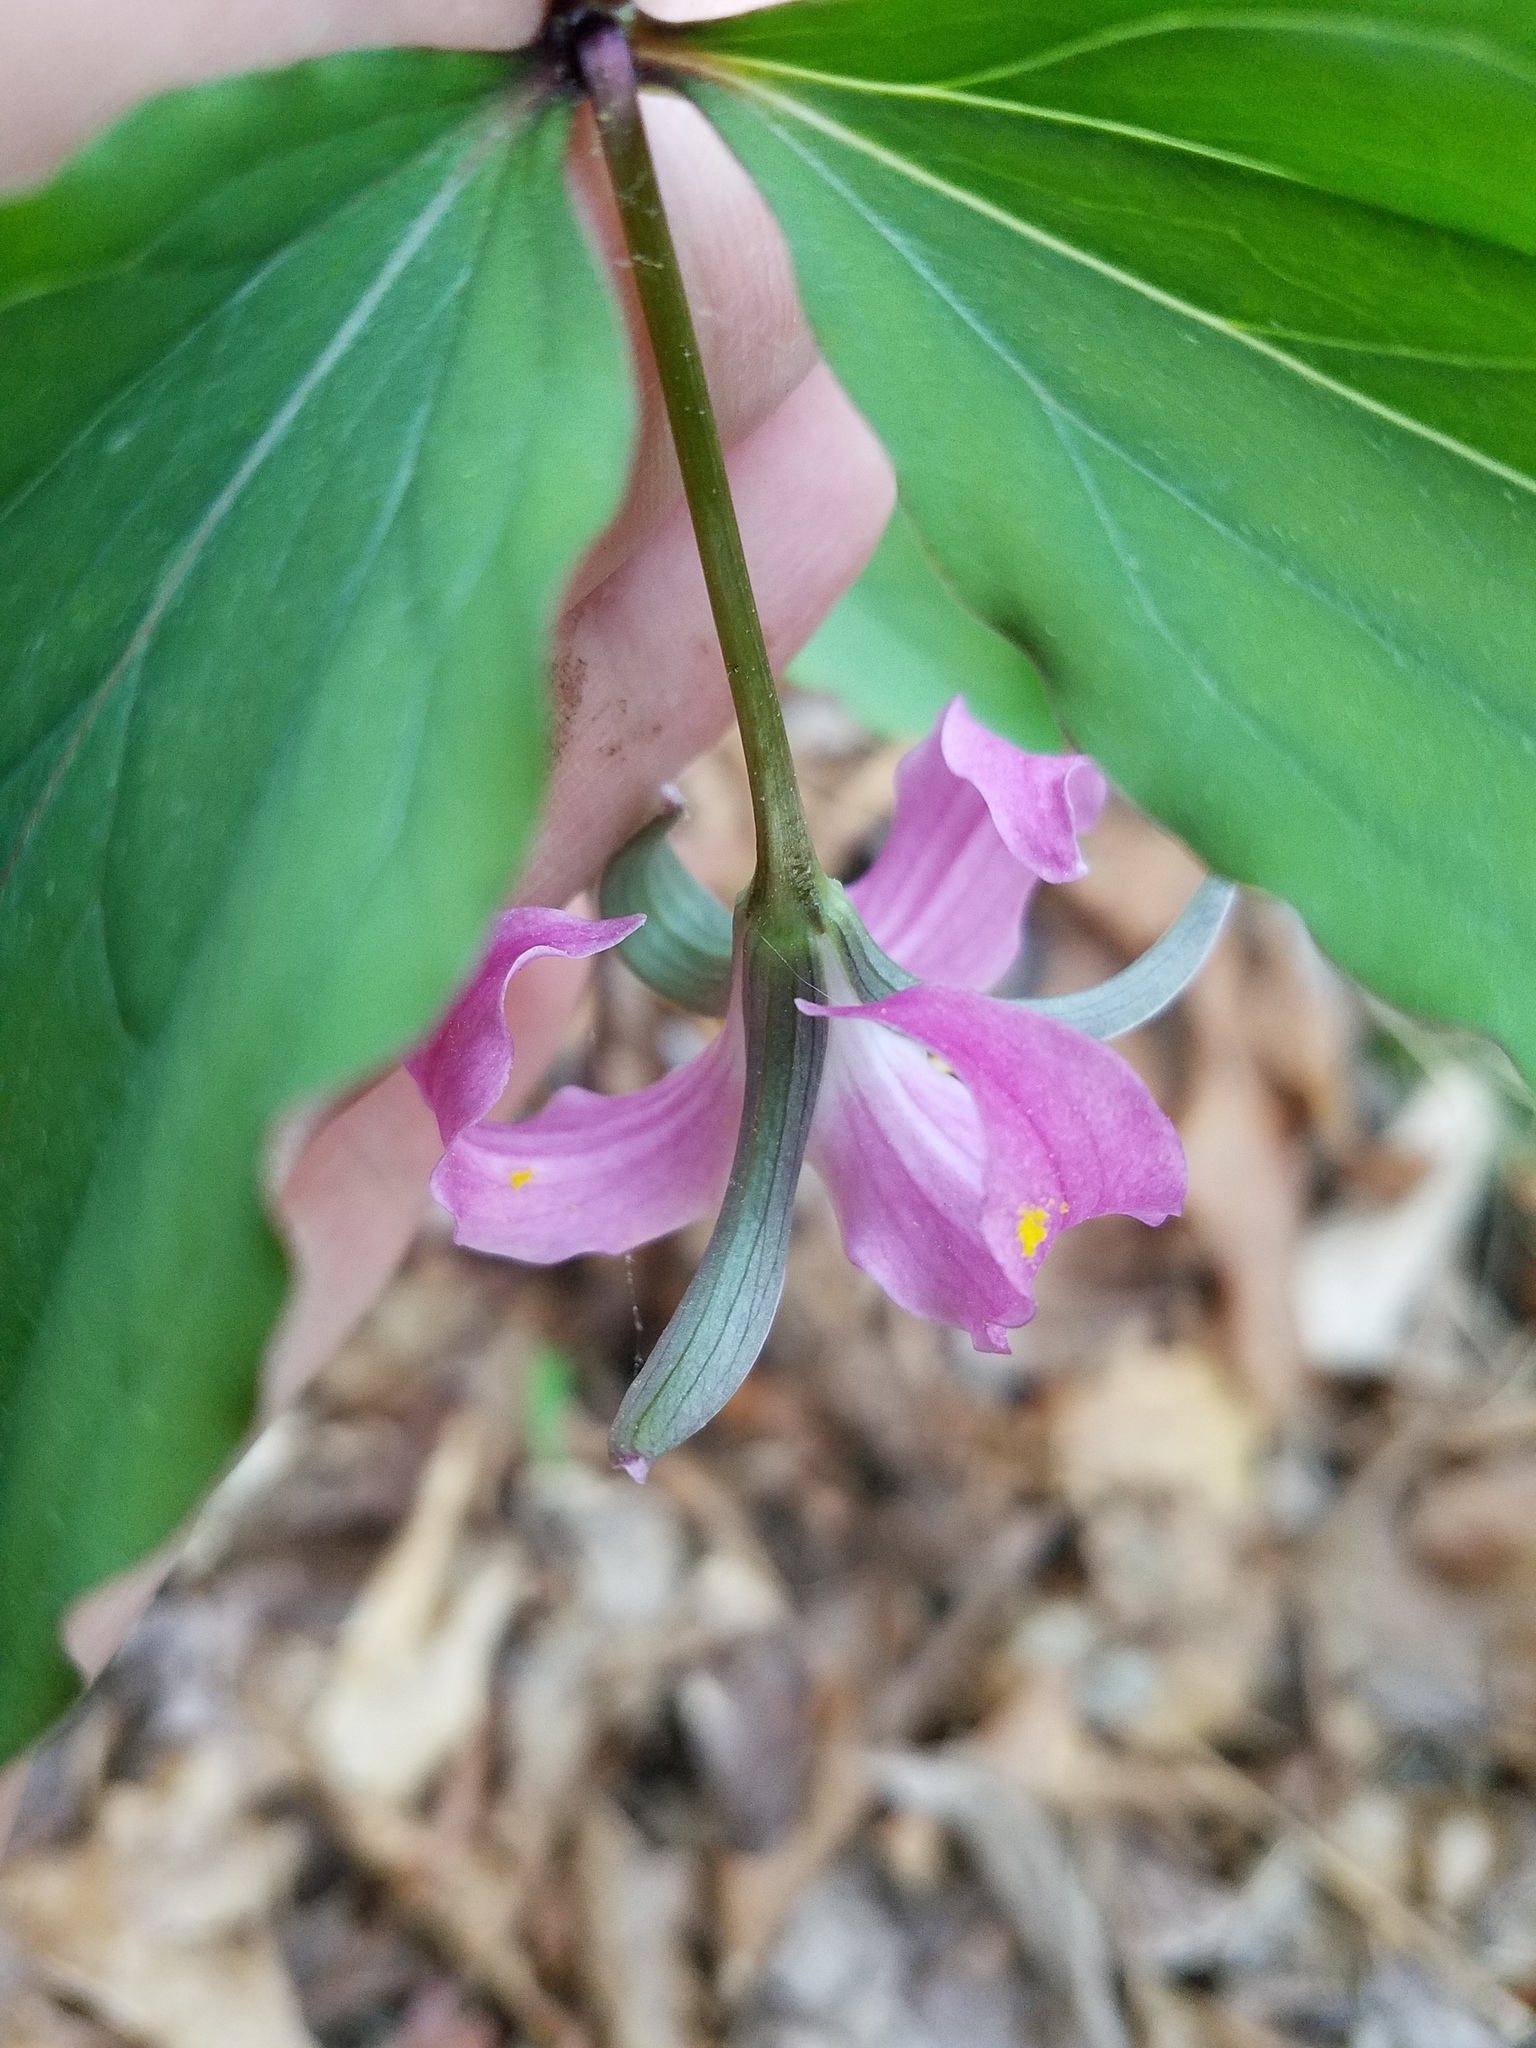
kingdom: Plantae
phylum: Tracheophyta
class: Liliopsida
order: Liliales
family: Melanthiaceae
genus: Trillium
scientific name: Trillium catesbaei
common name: Bashful trillium
